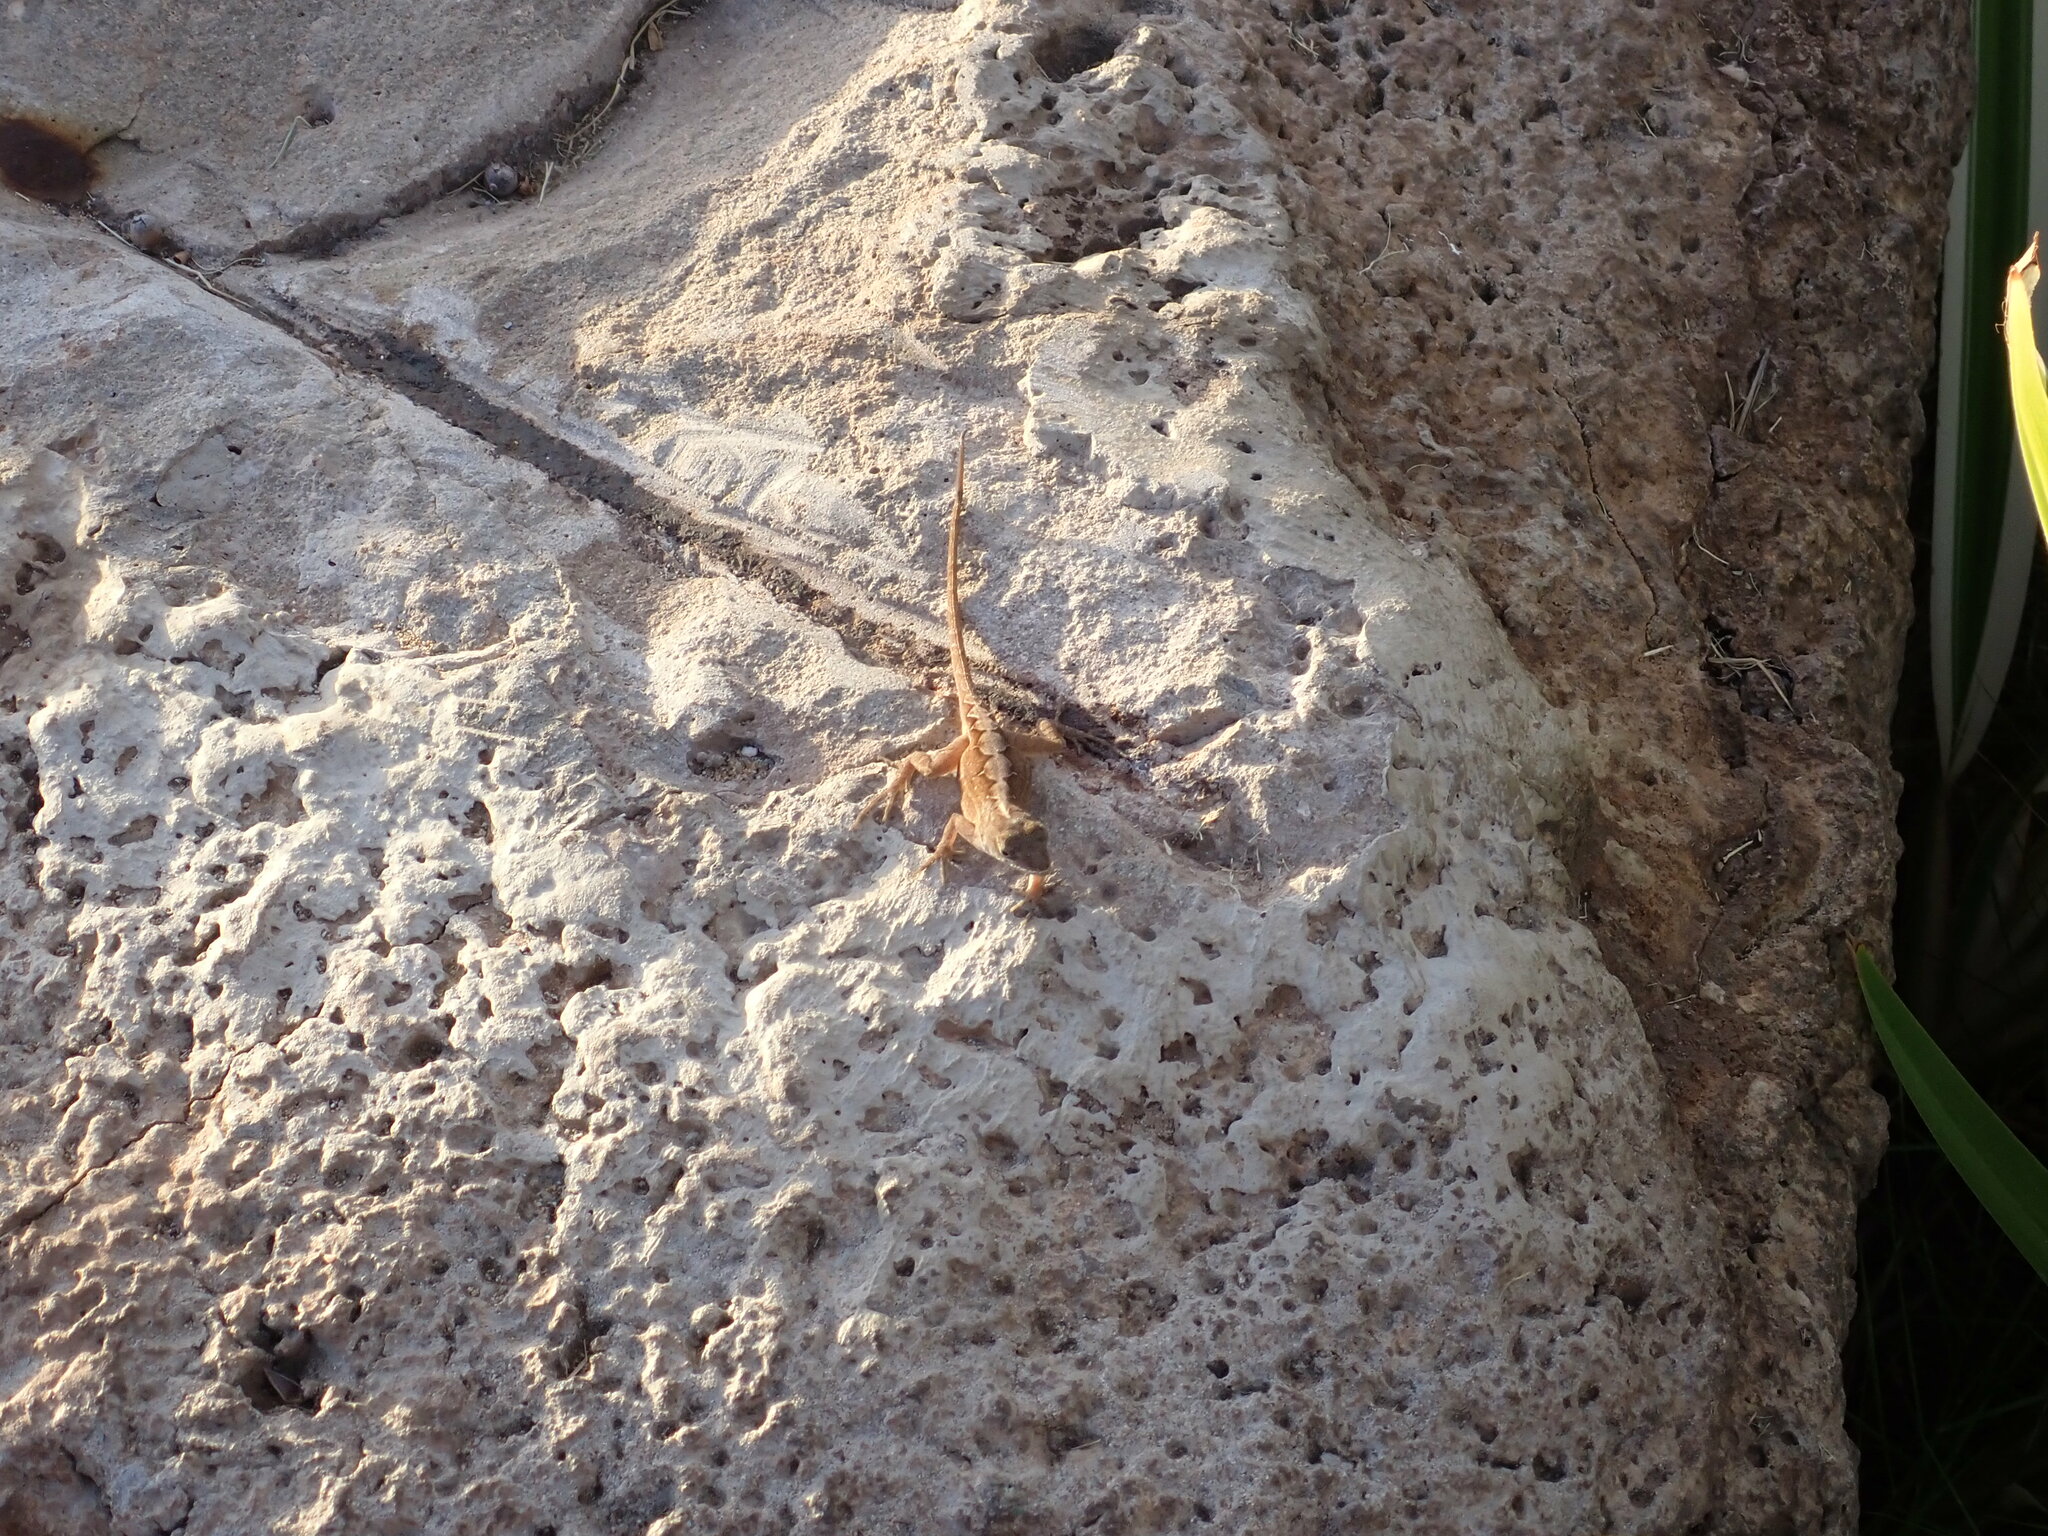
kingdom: Animalia
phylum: Chordata
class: Squamata
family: Dactyloidae
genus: Anolis
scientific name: Anolis sagrei
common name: Brown anole
